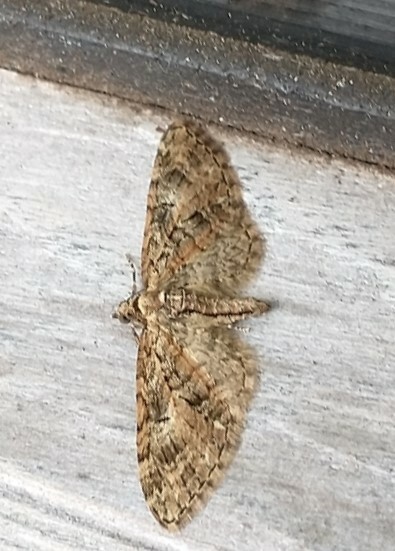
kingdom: Animalia
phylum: Arthropoda
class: Insecta
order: Lepidoptera
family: Geometridae
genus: Eupithecia
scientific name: Eupithecia abbreviata
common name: Brindled pug
